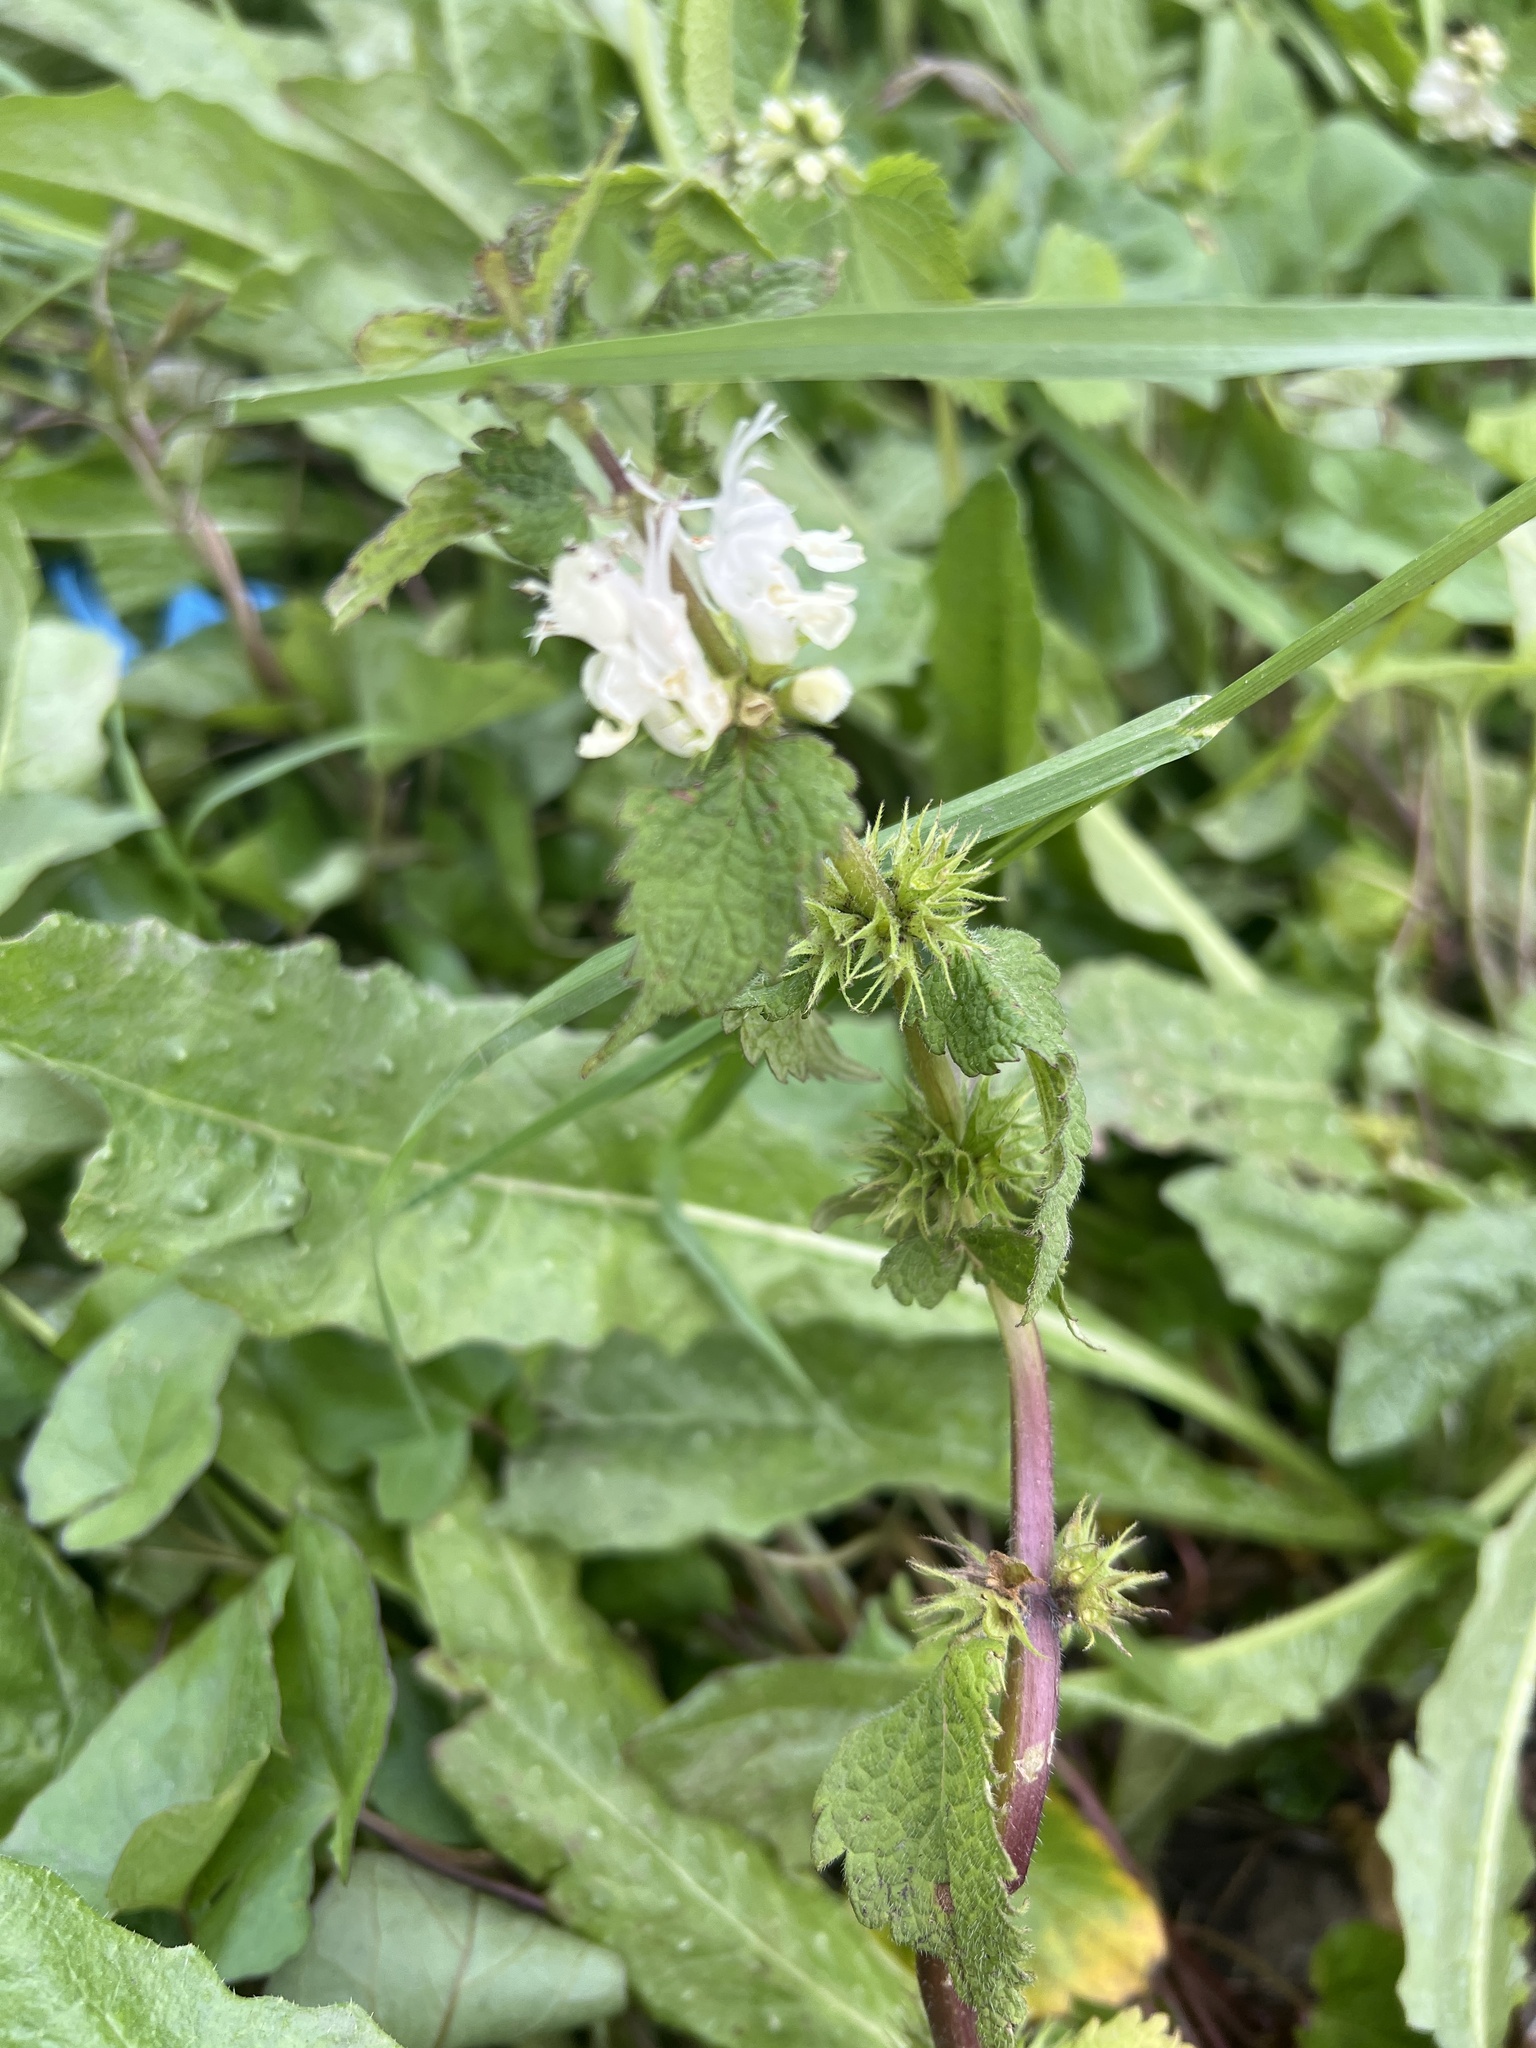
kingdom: Plantae
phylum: Tracheophyta
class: Magnoliopsida
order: Lamiales
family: Lamiaceae
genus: Lamium
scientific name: Lamium album
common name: White dead-nettle
